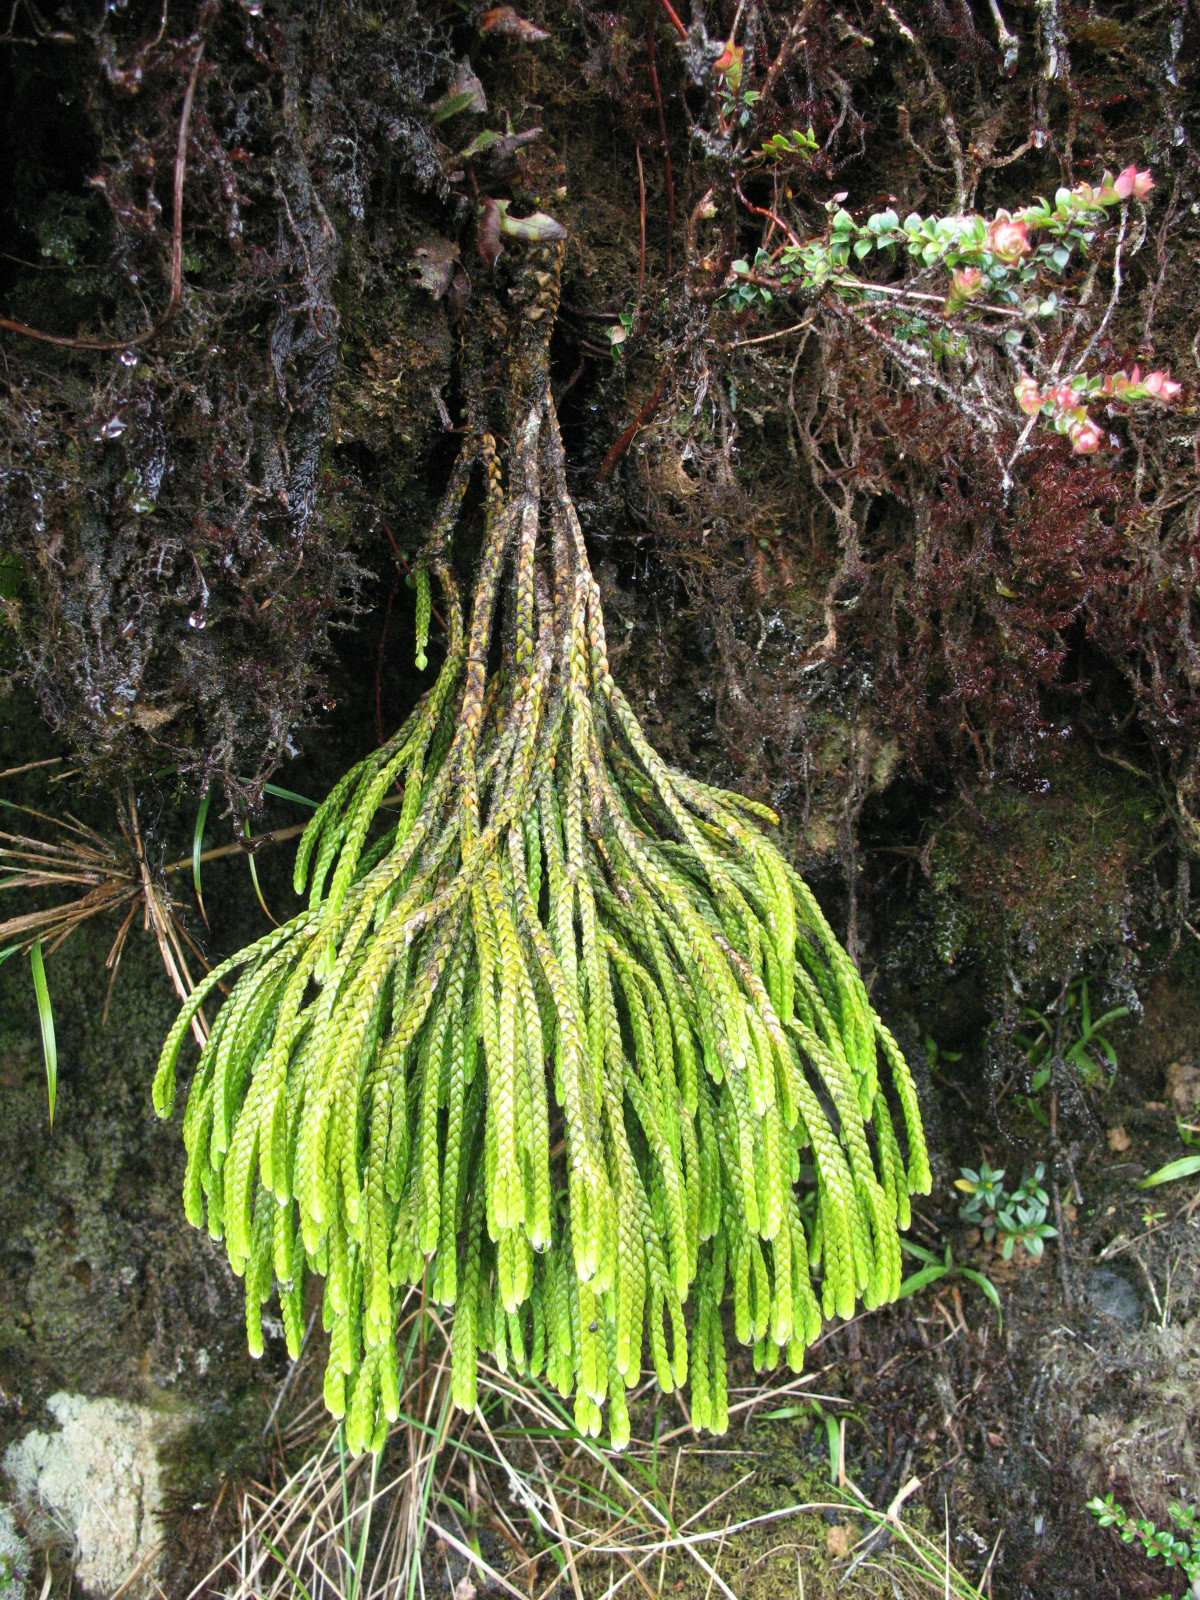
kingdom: Plantae
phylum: Tracheophyta
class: Lycopodiopsida
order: Lycopodiales
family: Lycopodiaceae
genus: Phlegmariurus
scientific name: Phlegmariurus echinatus
